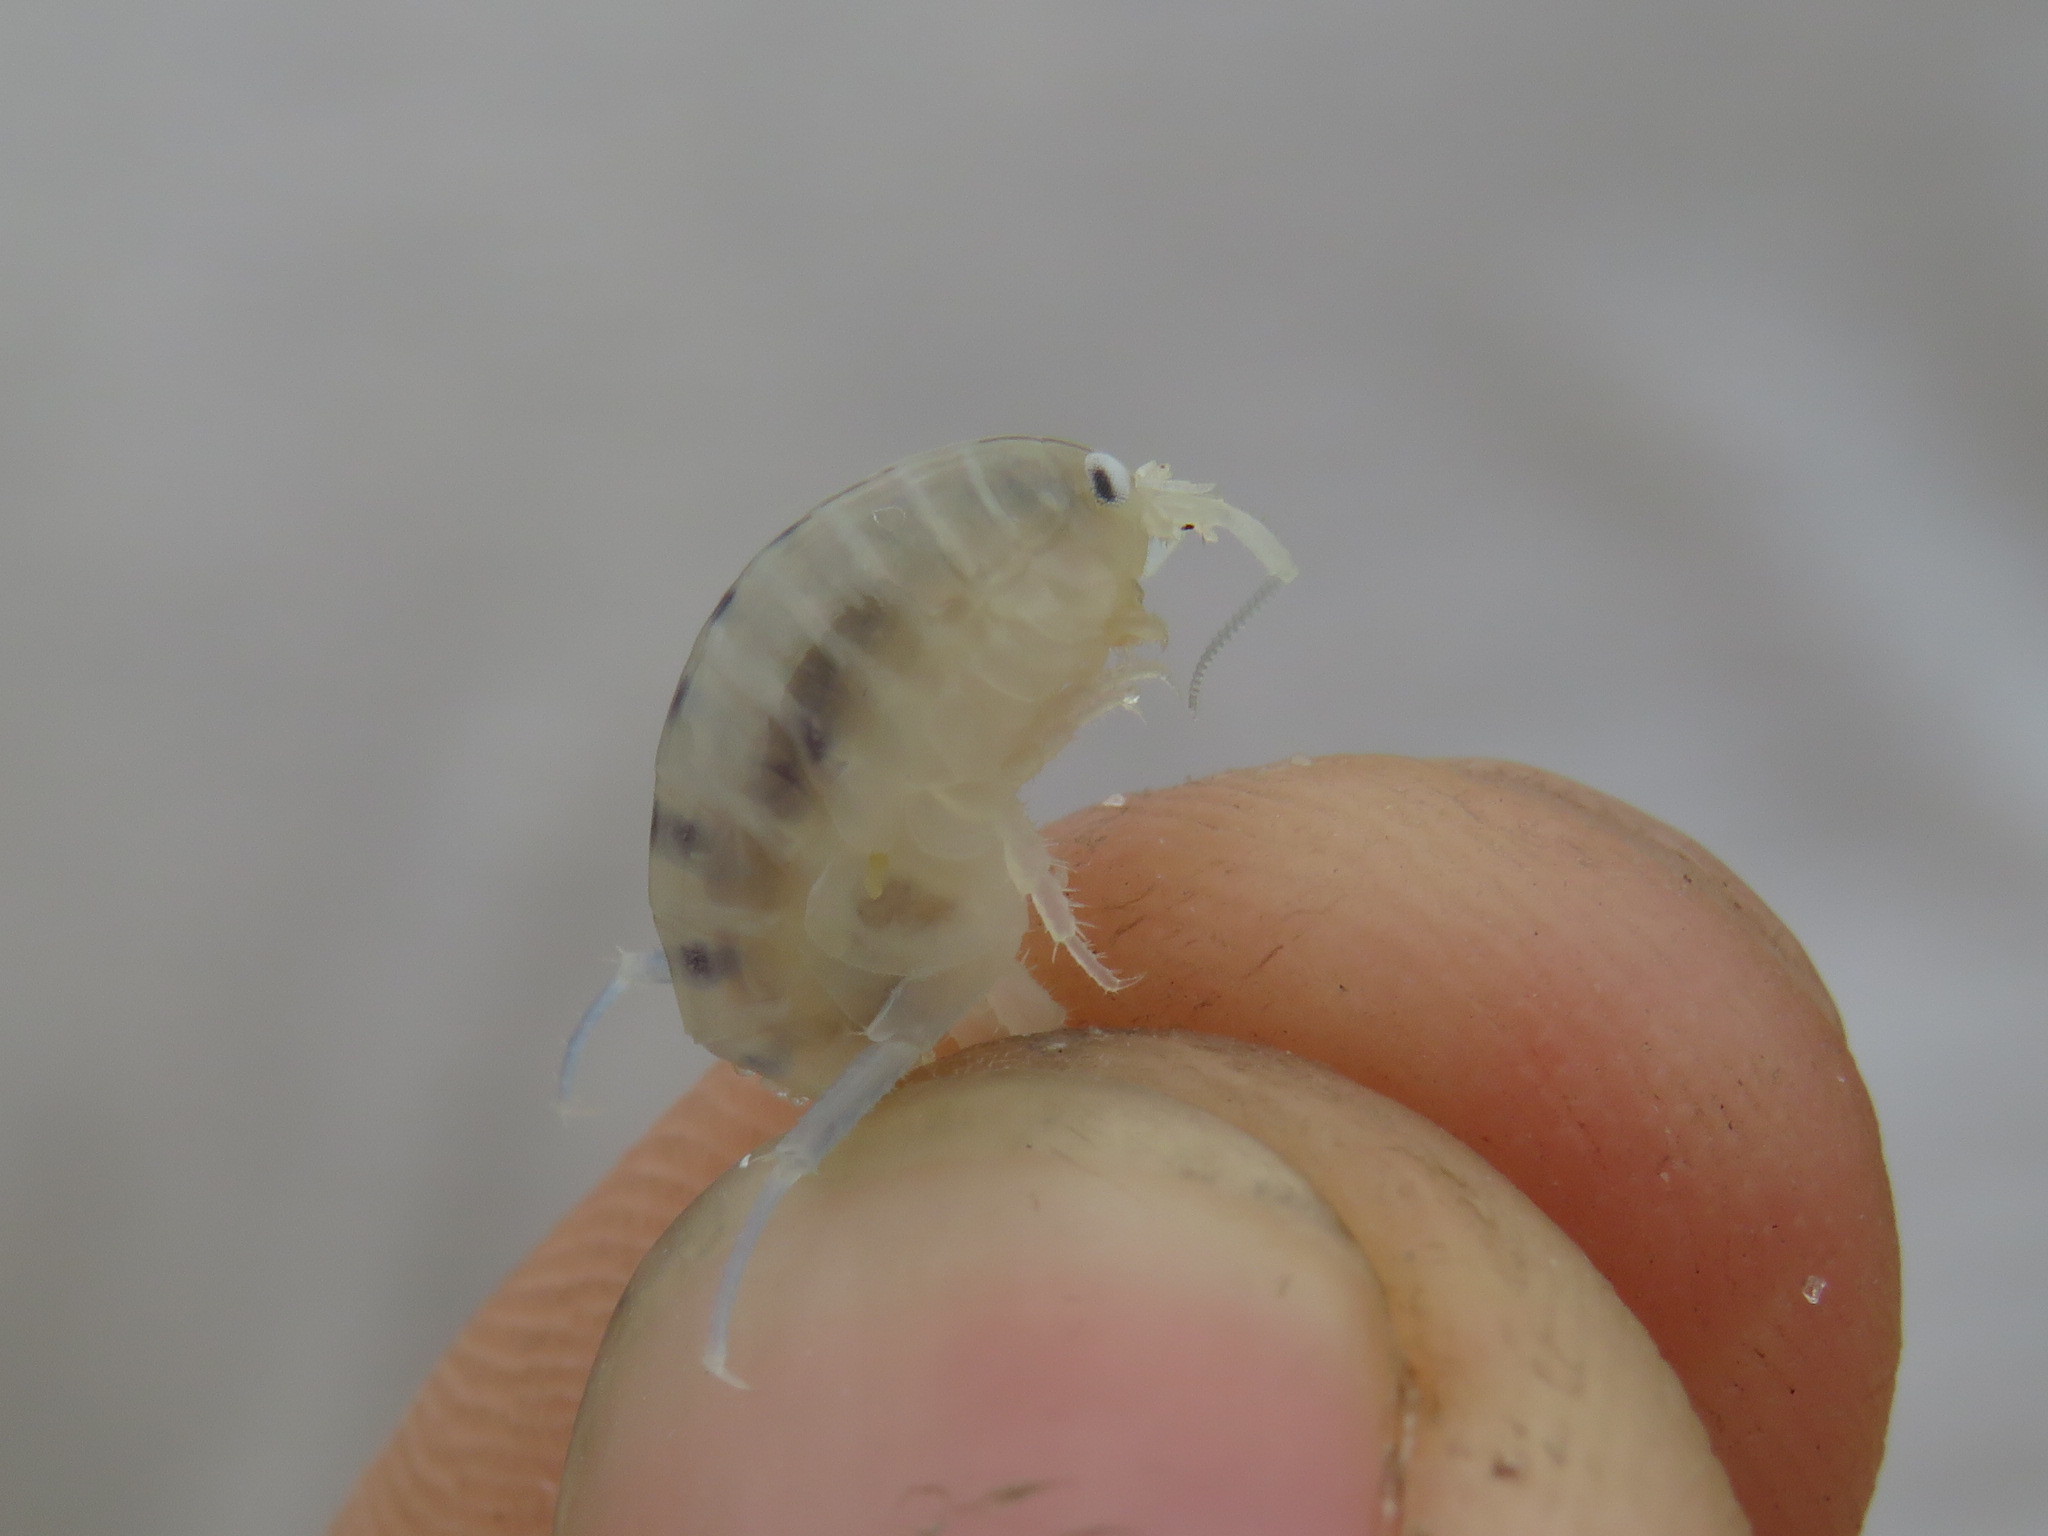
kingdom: Animalia
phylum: Arthropoda
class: Malacostraca
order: Amphipoda
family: Talitridae
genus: Africorchestia
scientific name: Africorchestia quadrispinosa
